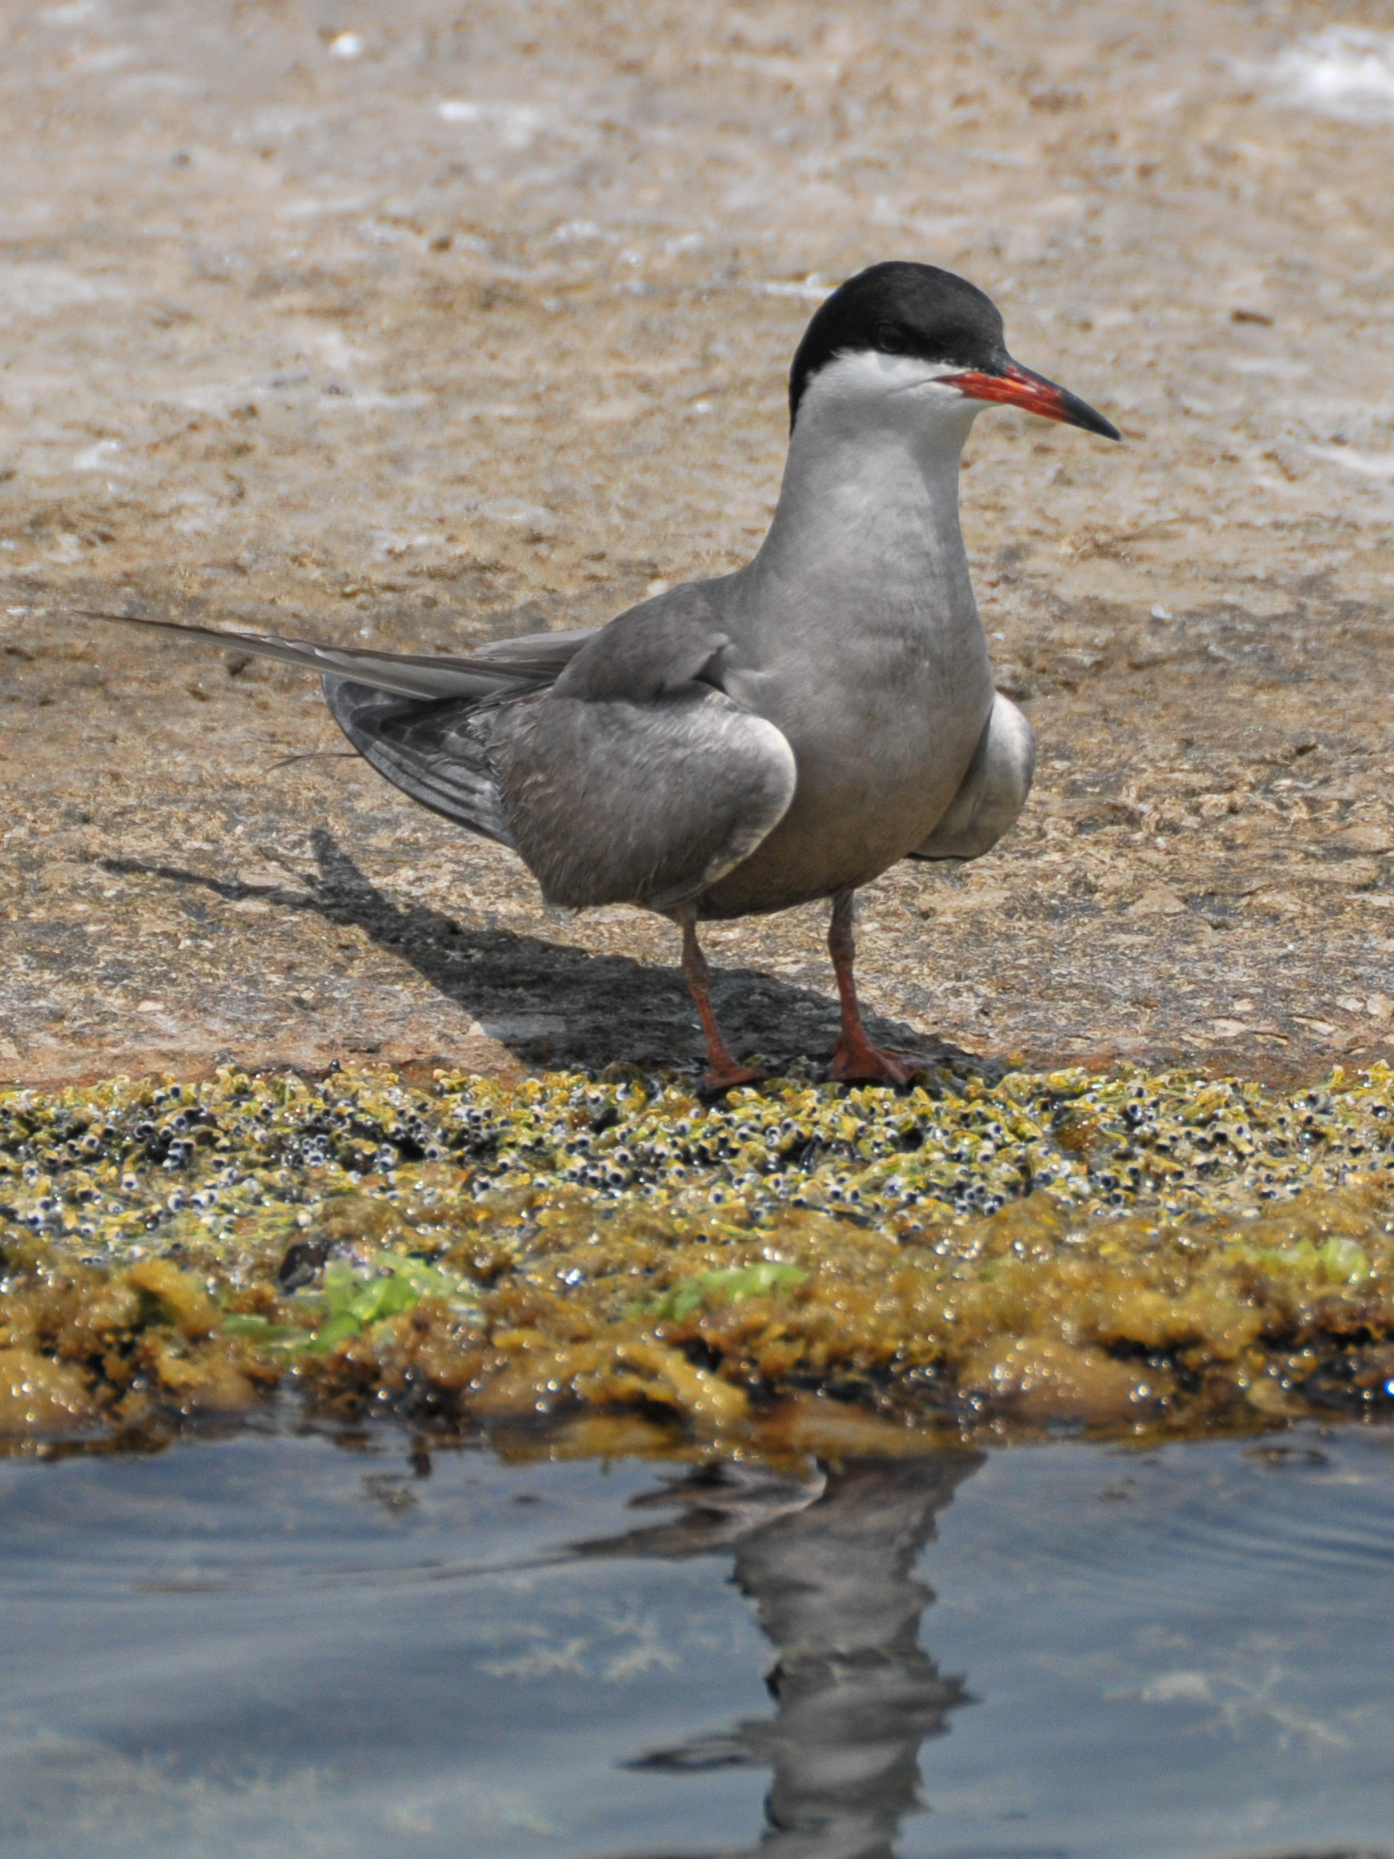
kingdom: Animalia
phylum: Chordata
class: Aves
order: Charadriiformes
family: Laridae
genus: Sterna
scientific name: Sterna repressa
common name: White-cheeked tern
